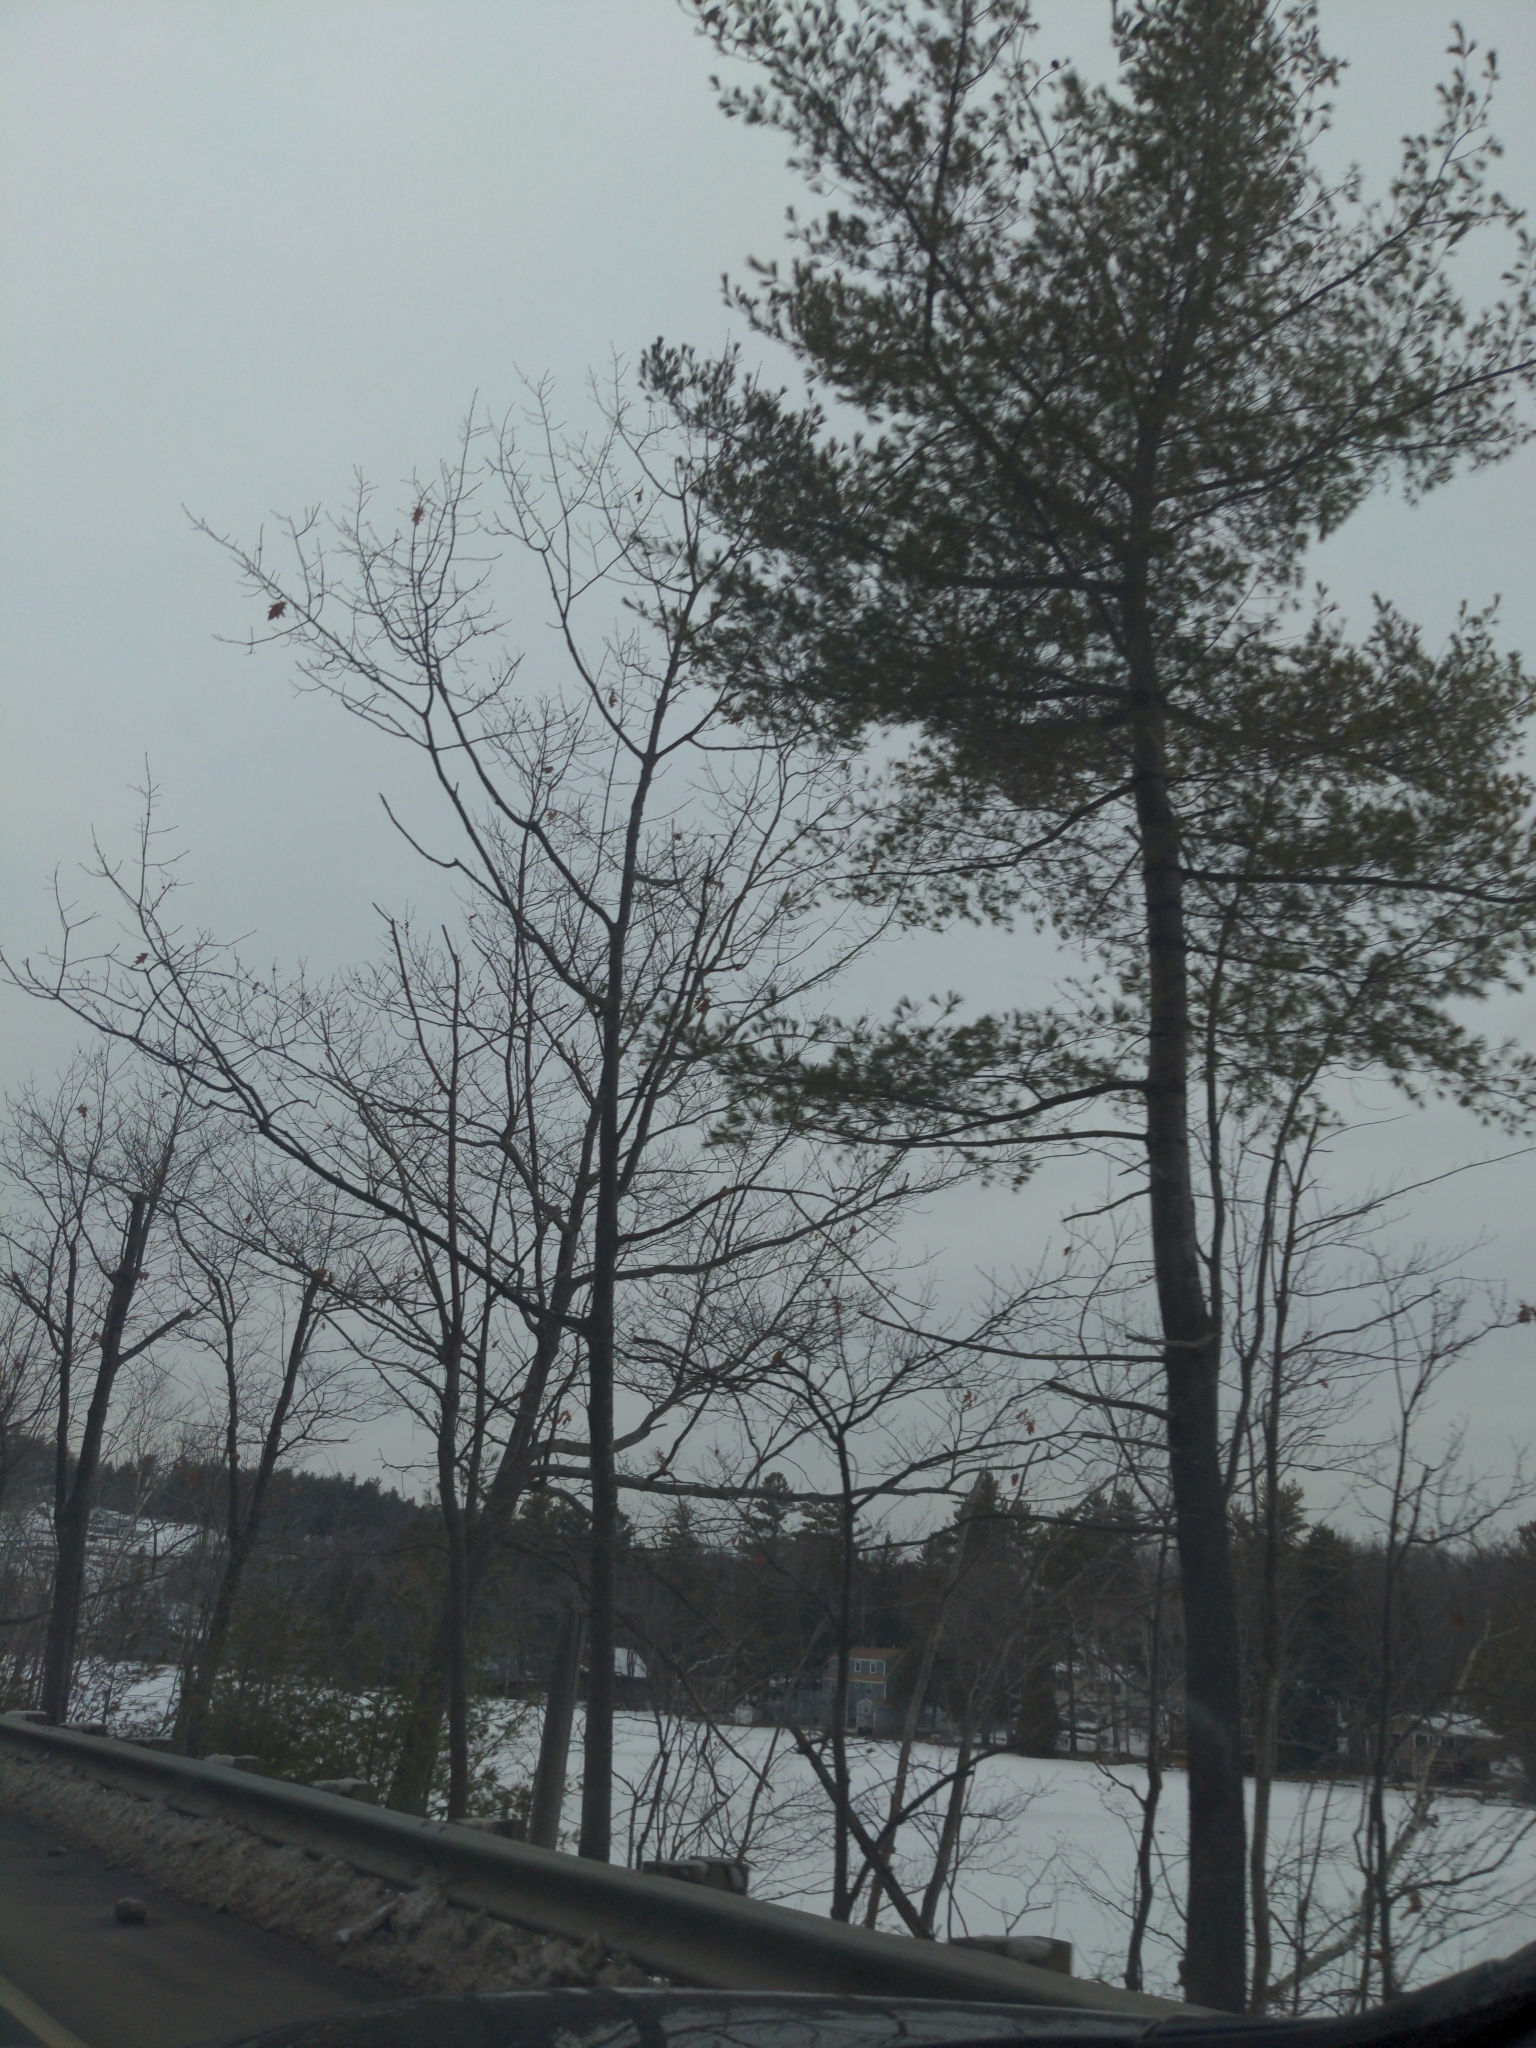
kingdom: Plantae
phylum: Tracheophyta
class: Pinopsida
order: Pinales
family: Pinaceae
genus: Pinus
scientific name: Pinus strobus
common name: Weymouth pine
